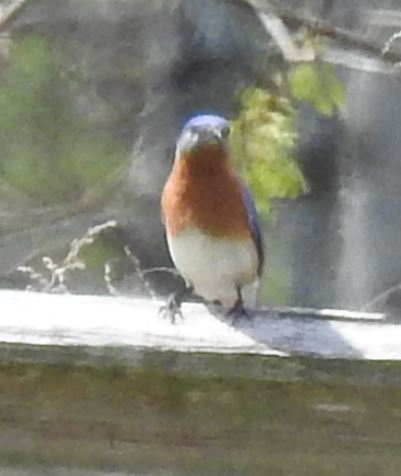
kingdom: Animalia
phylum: Chordata
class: Aves
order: Passeriformes
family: Turdidae
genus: Sialia
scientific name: Sialia sialis
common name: Eastern bluebird
